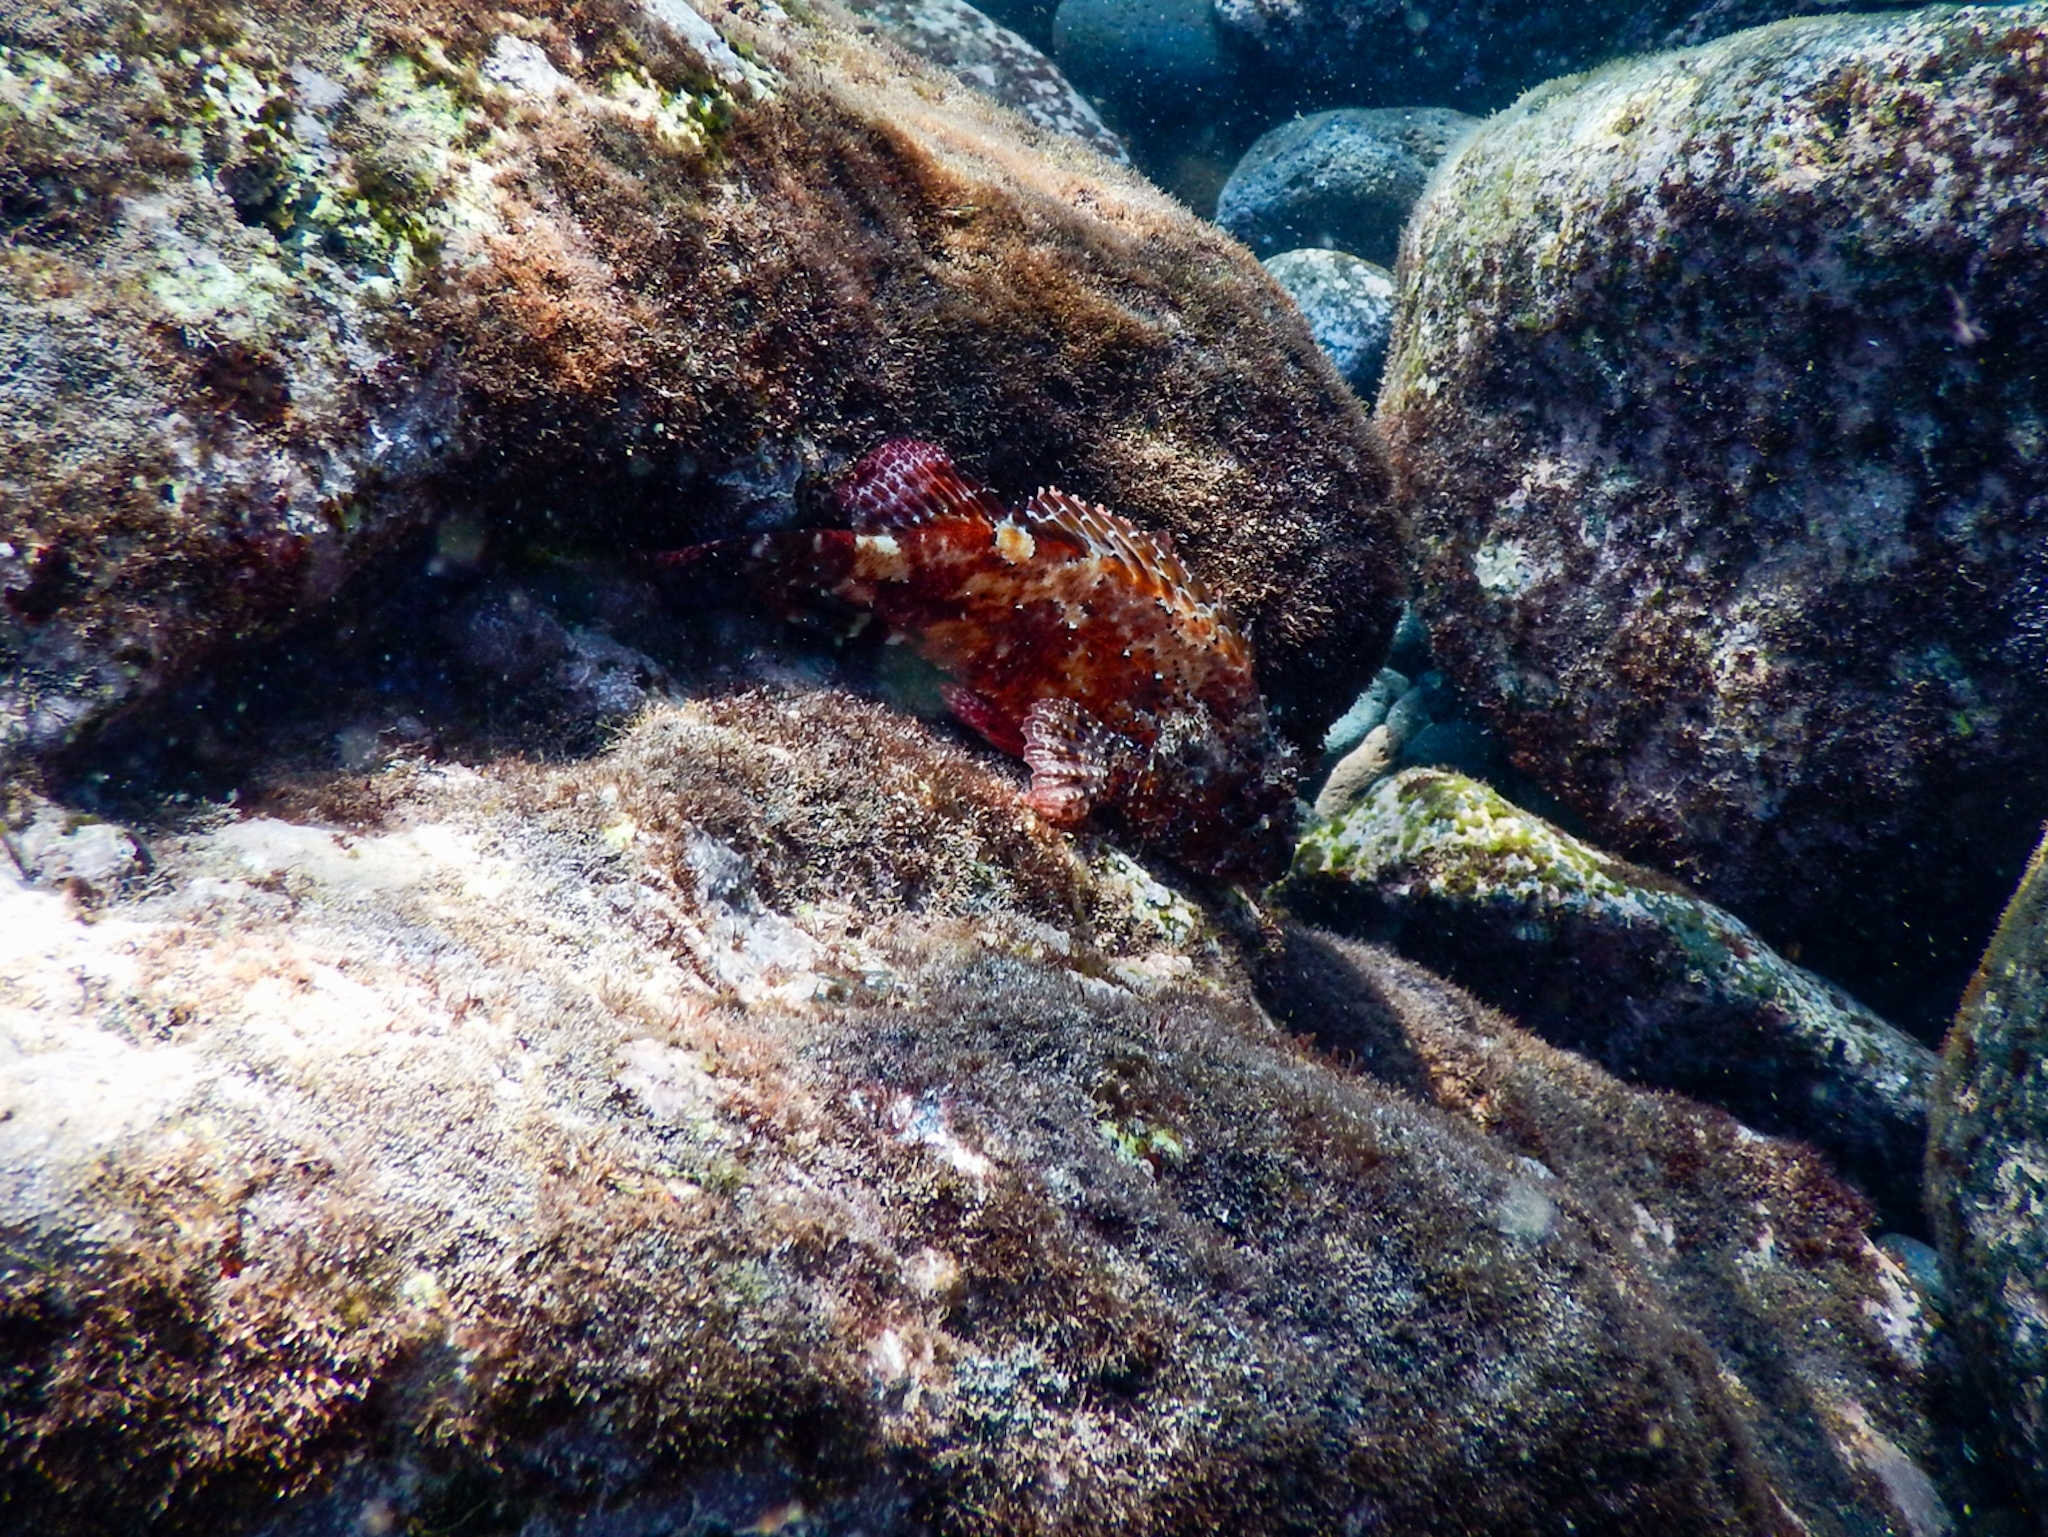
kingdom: Animalia
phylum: Chordata
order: Scorpaeniformes
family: Scorpaenidae
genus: Scorpaena
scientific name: Scorpaena maderensis
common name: Madeira rockfish
